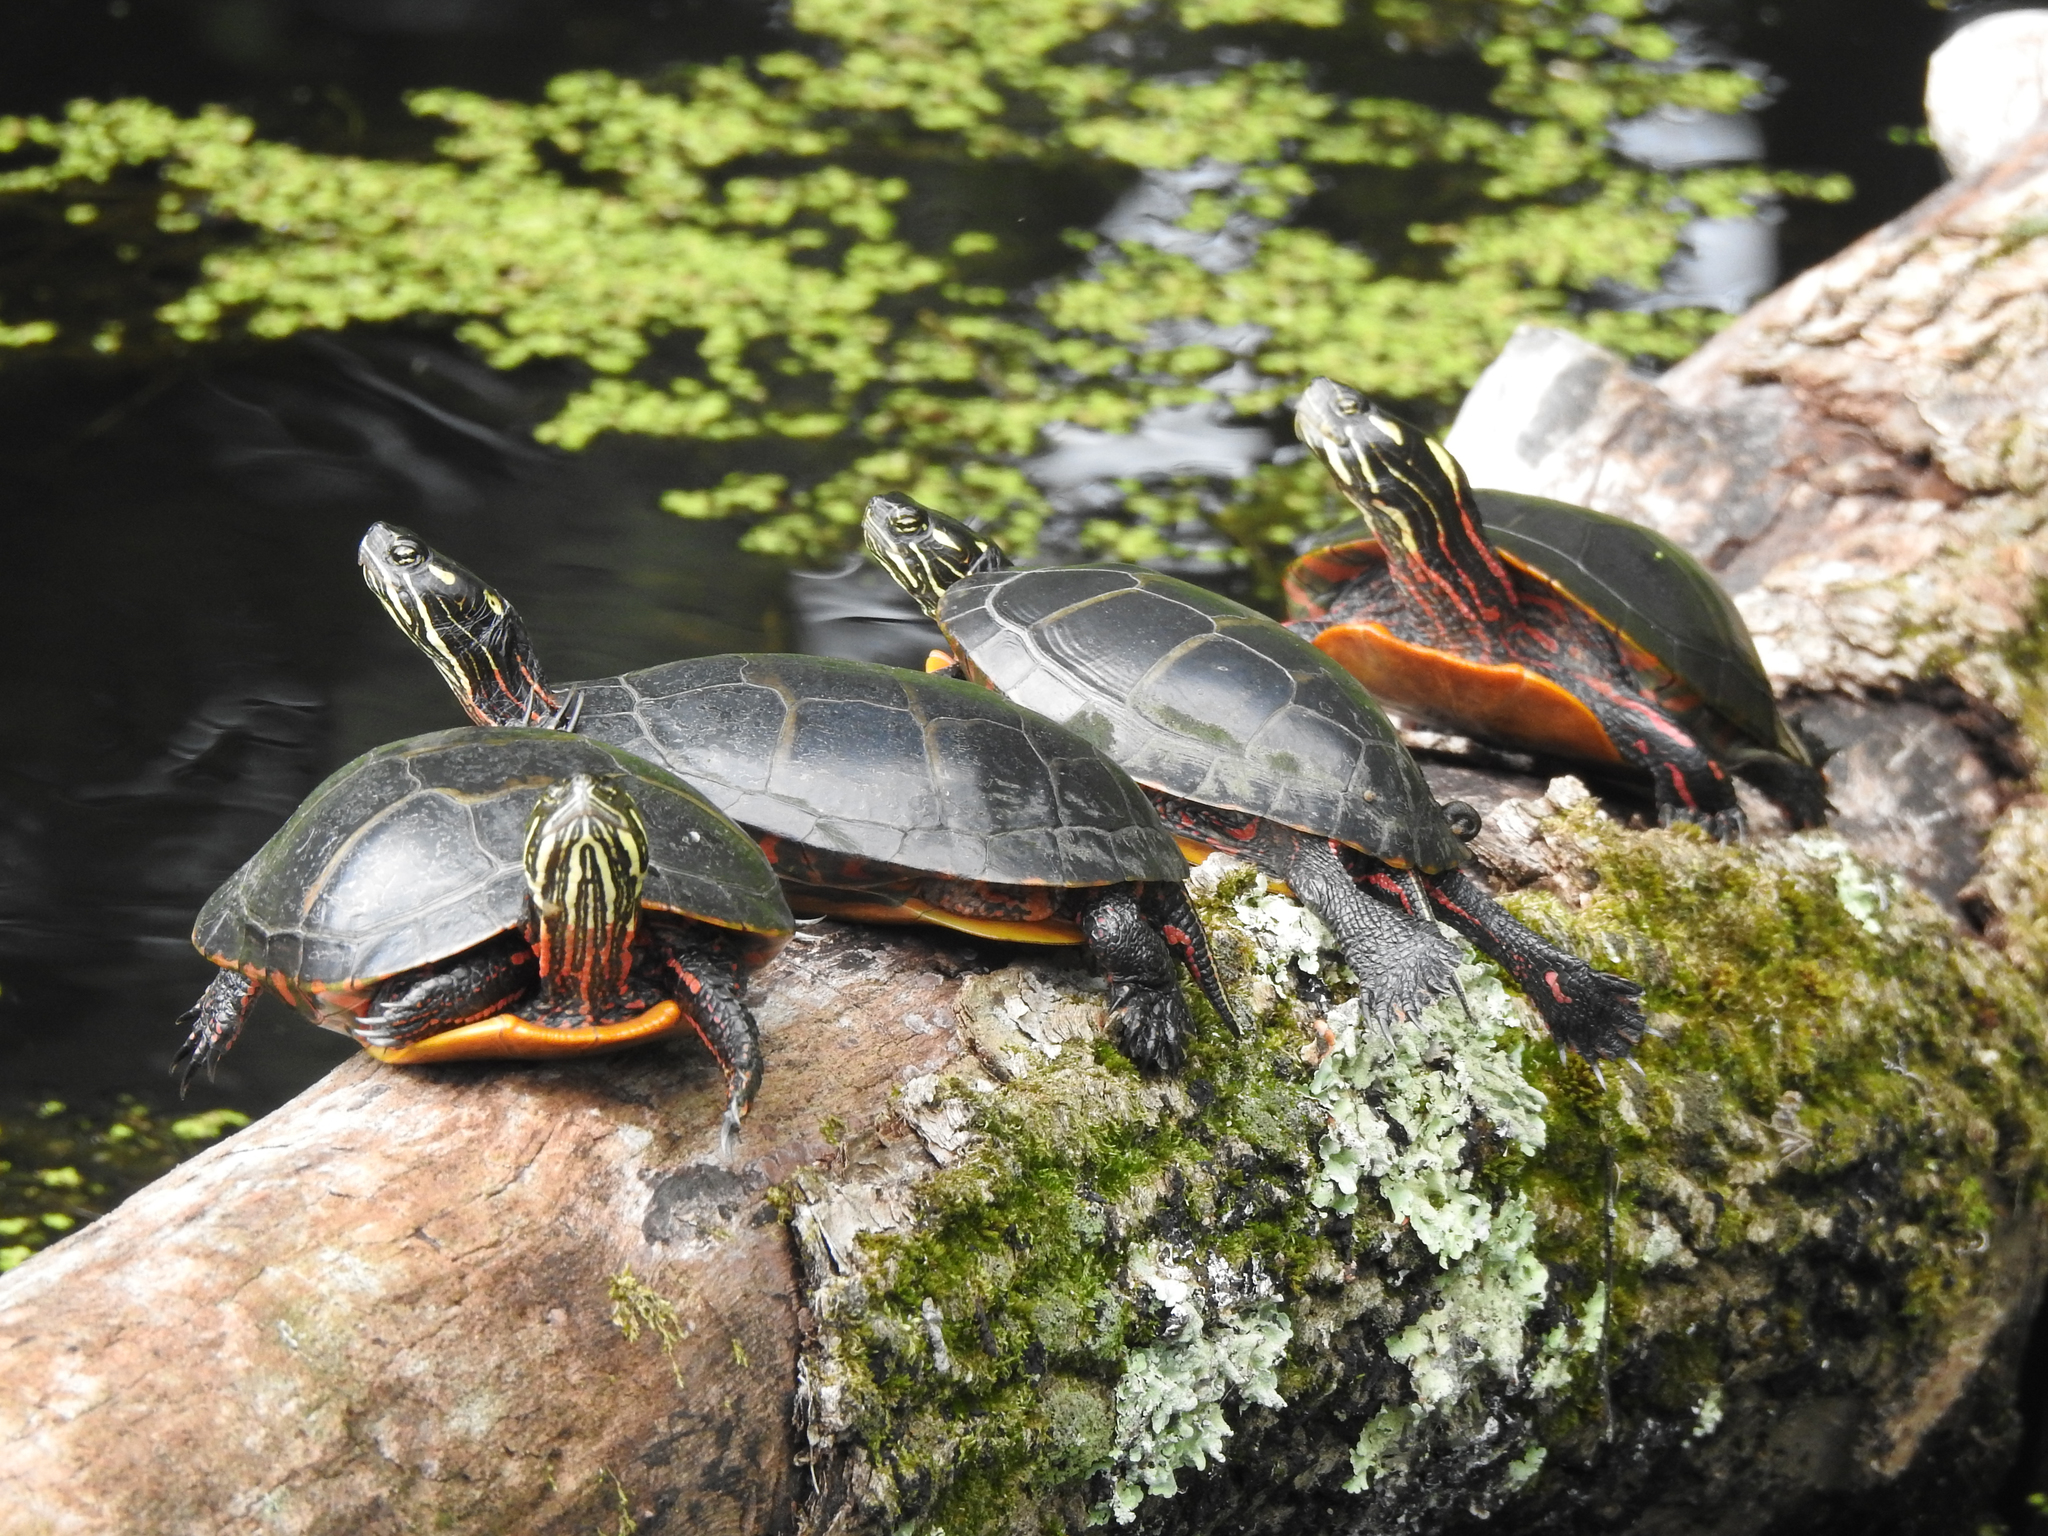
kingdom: Animalia
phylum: Chordata
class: Testudines
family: Emydidae
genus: Chrysemys
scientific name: Chrysemys picta
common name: Painted turtle
